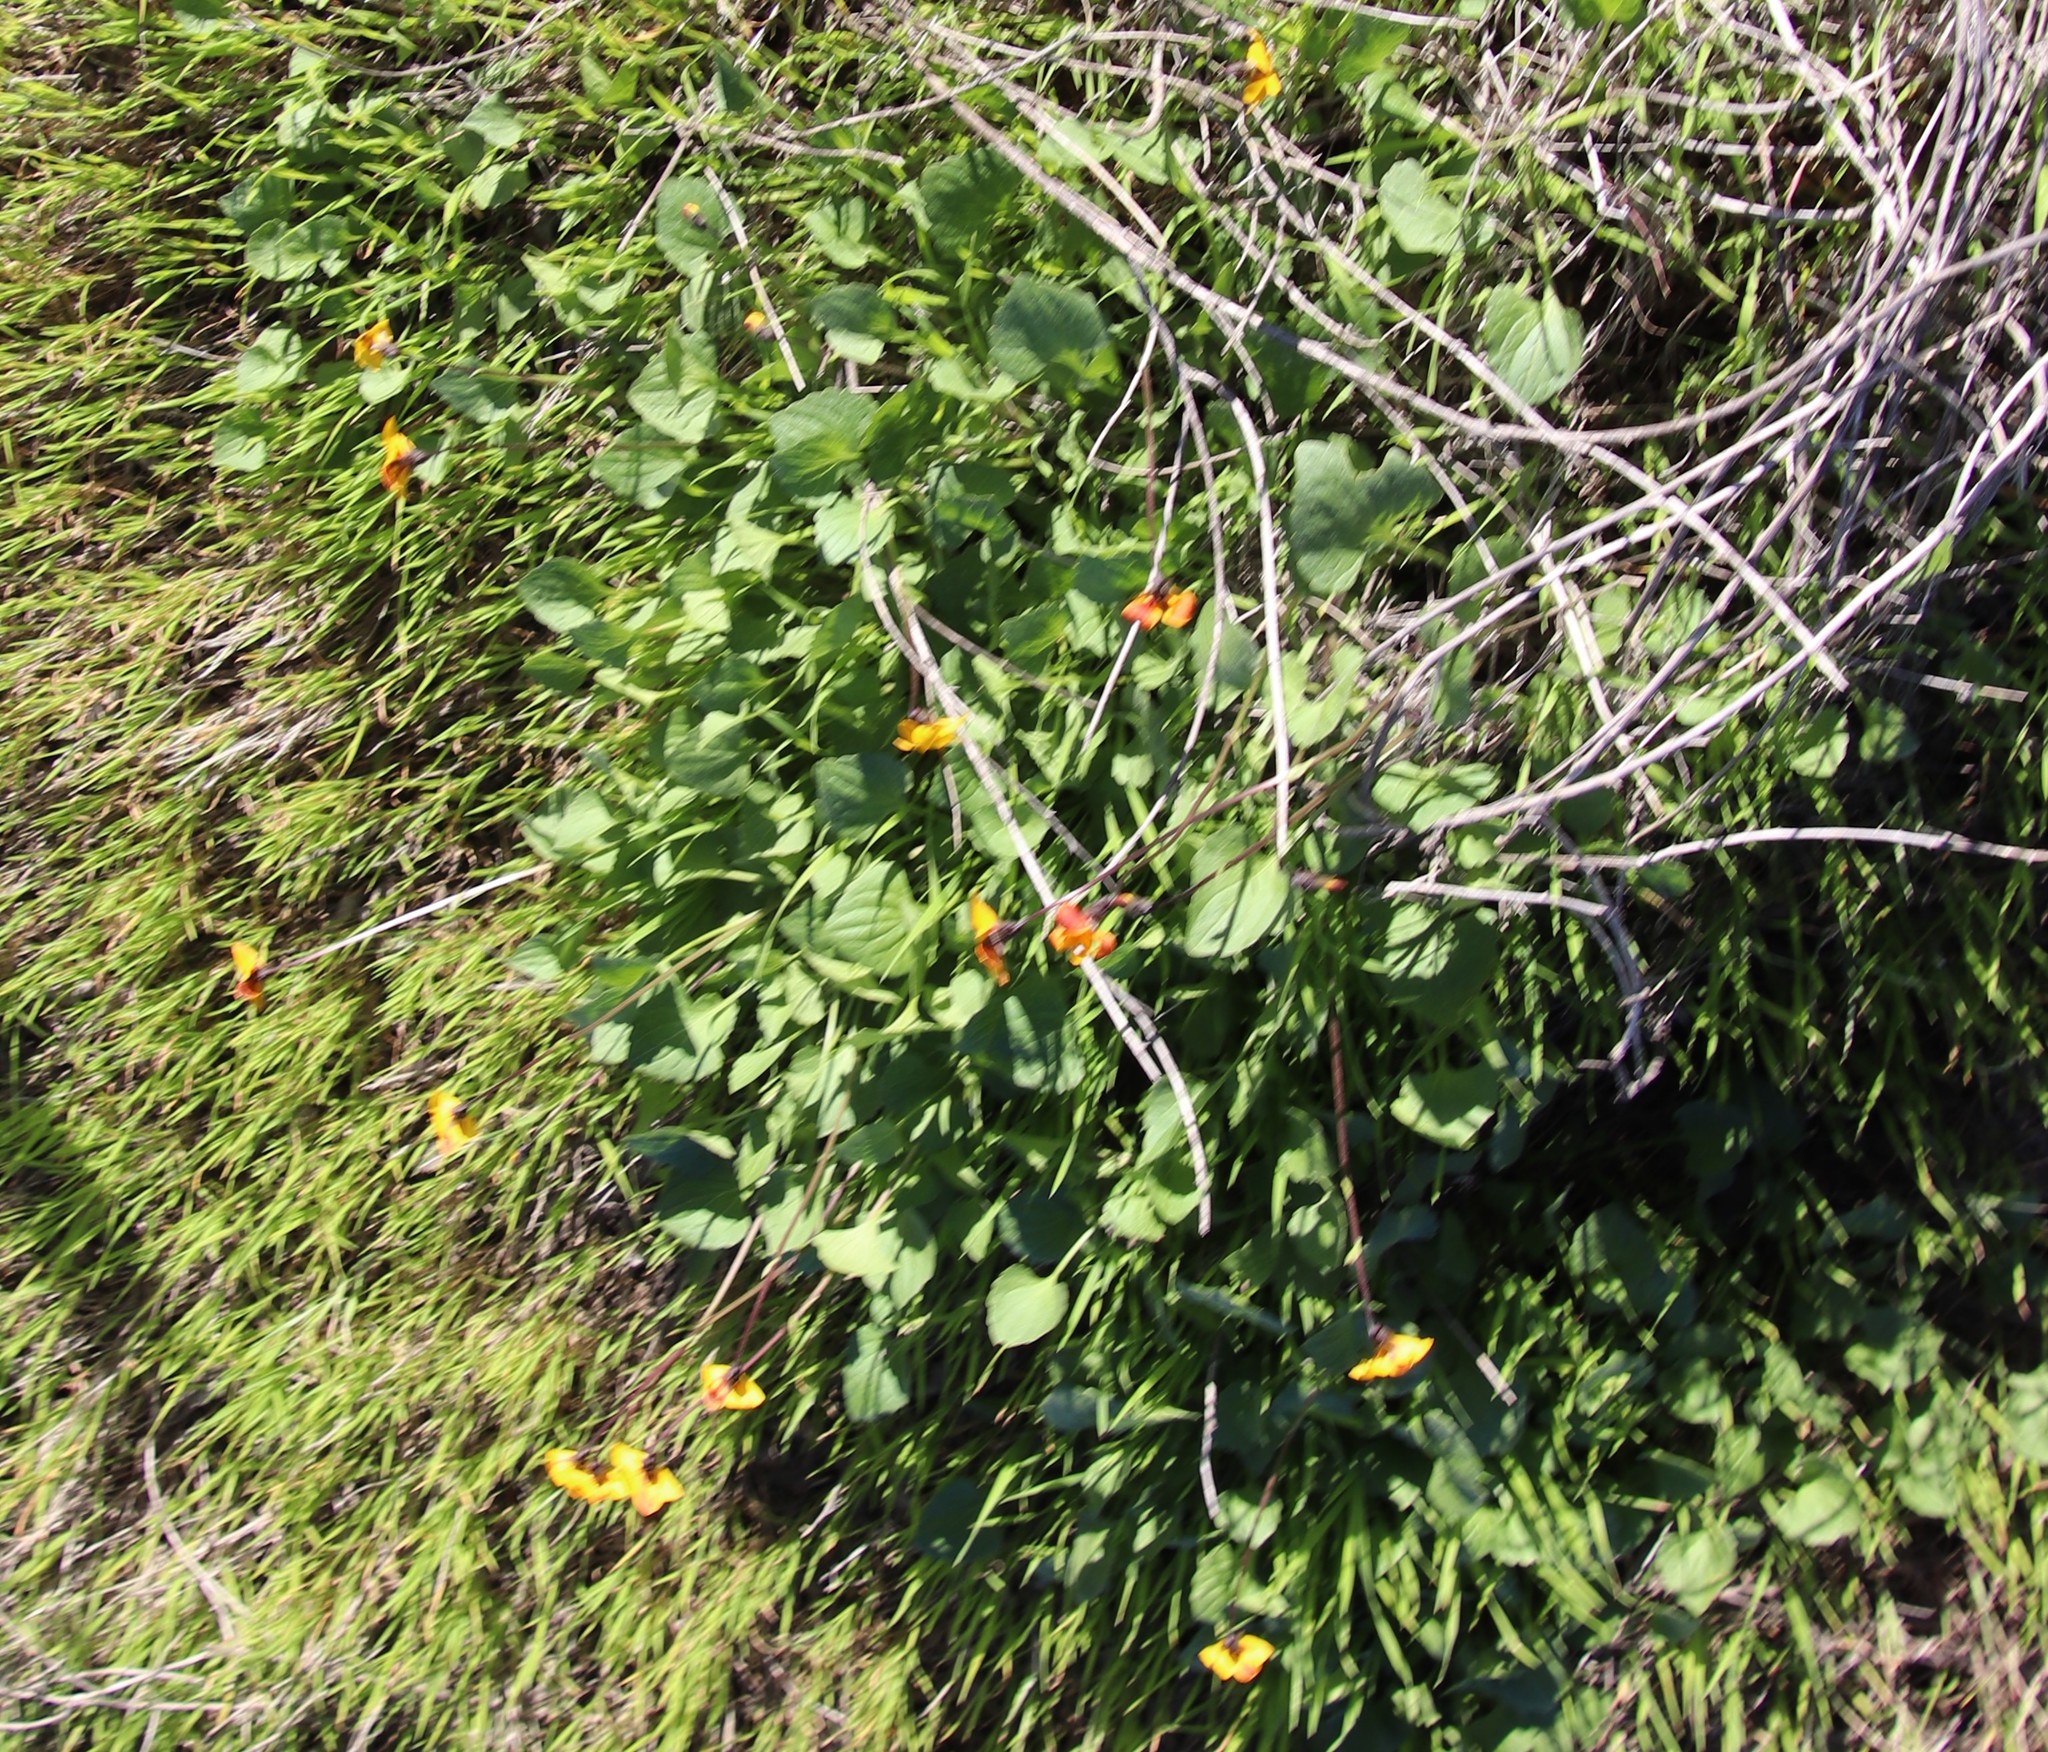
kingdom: Plantae
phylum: Tracheophyta
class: Magnoliopsida
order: Malpighiales
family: Violaceae
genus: Viola
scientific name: Viola pedunculata
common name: California golden violet
